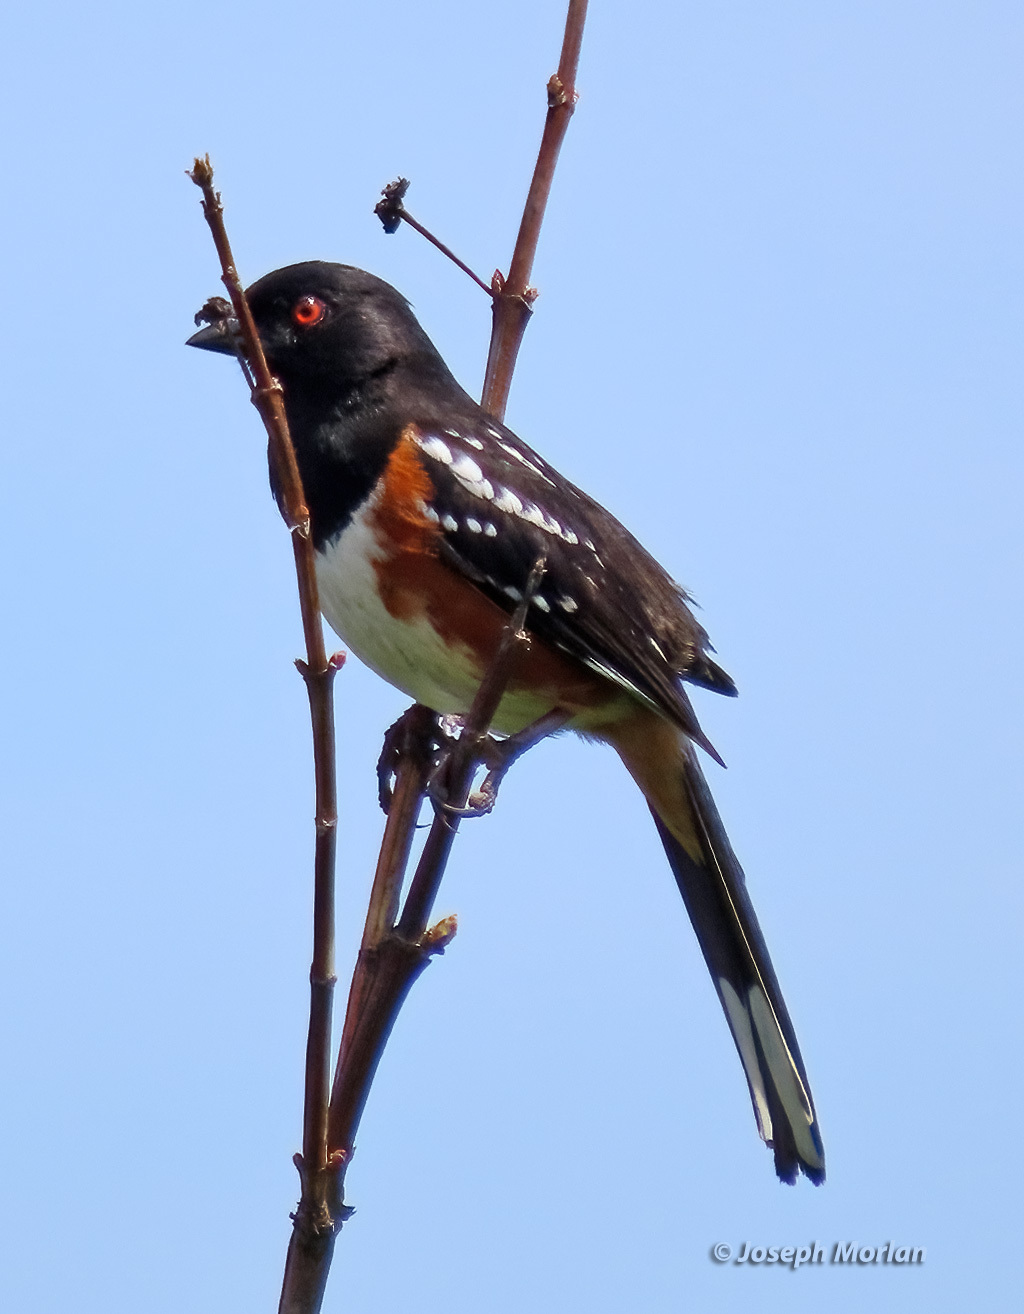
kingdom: Animalia
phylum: Chordata
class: Aves
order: Passeriformes
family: Passerellidae
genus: Pipilo
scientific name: Pipilo maculatus
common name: Spotted towhee
